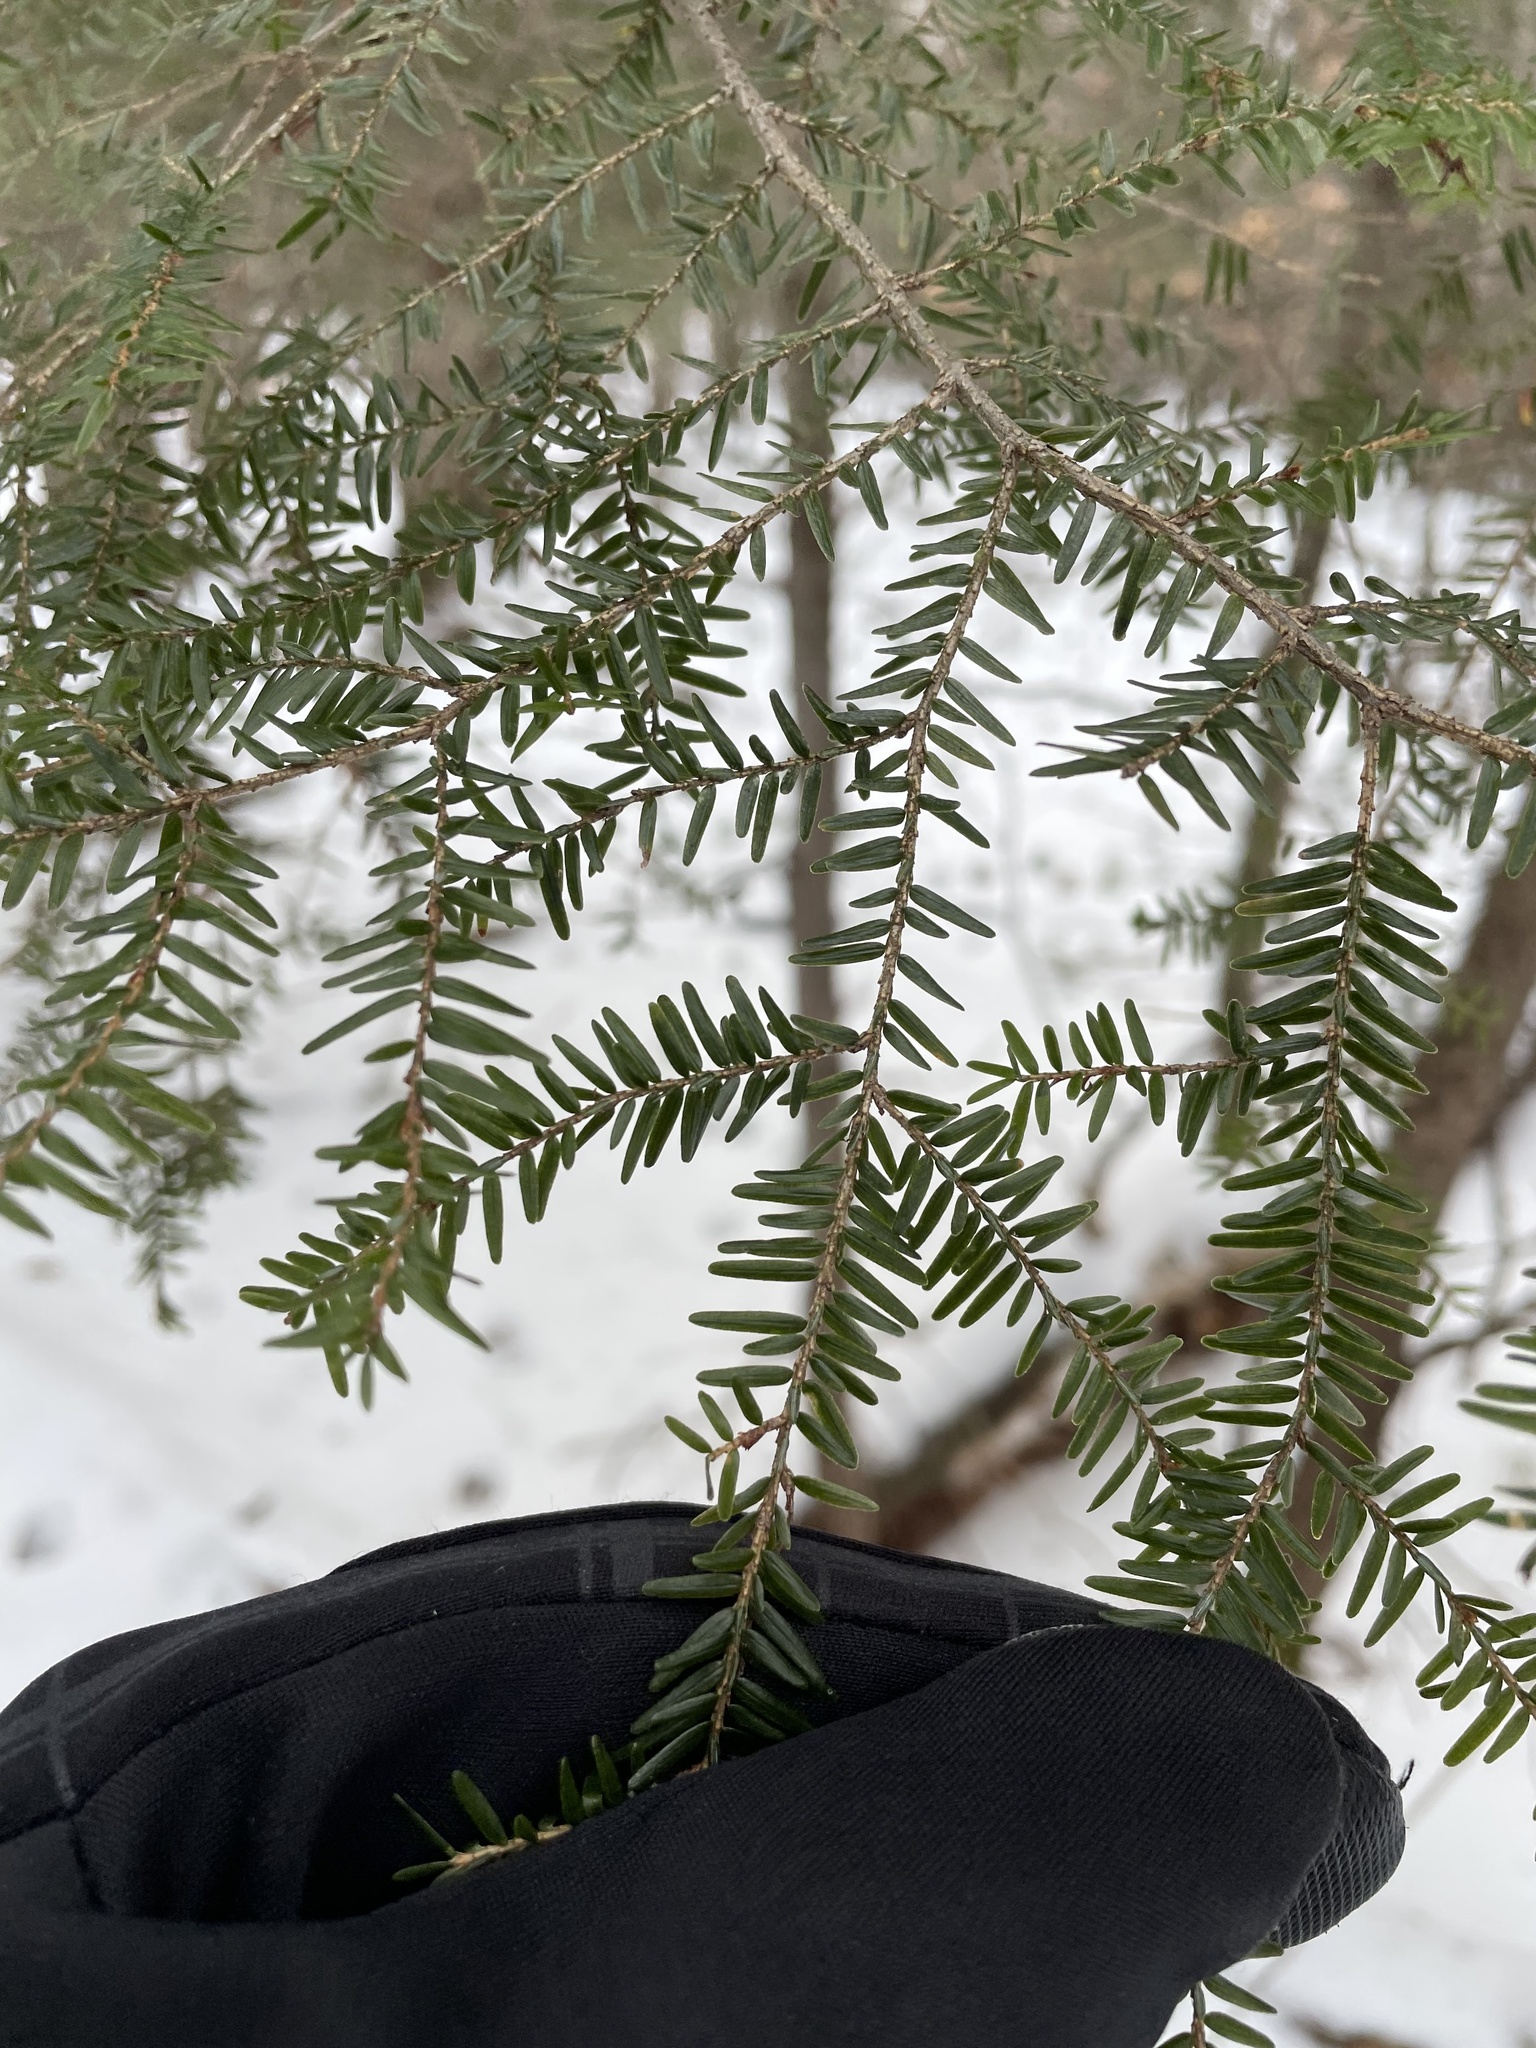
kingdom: Plantae
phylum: Tracheophyta
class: Pinopsida
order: Pinales
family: Pinaceae
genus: Tsuga
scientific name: Tsuga canadensis
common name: Eastern hemlock
